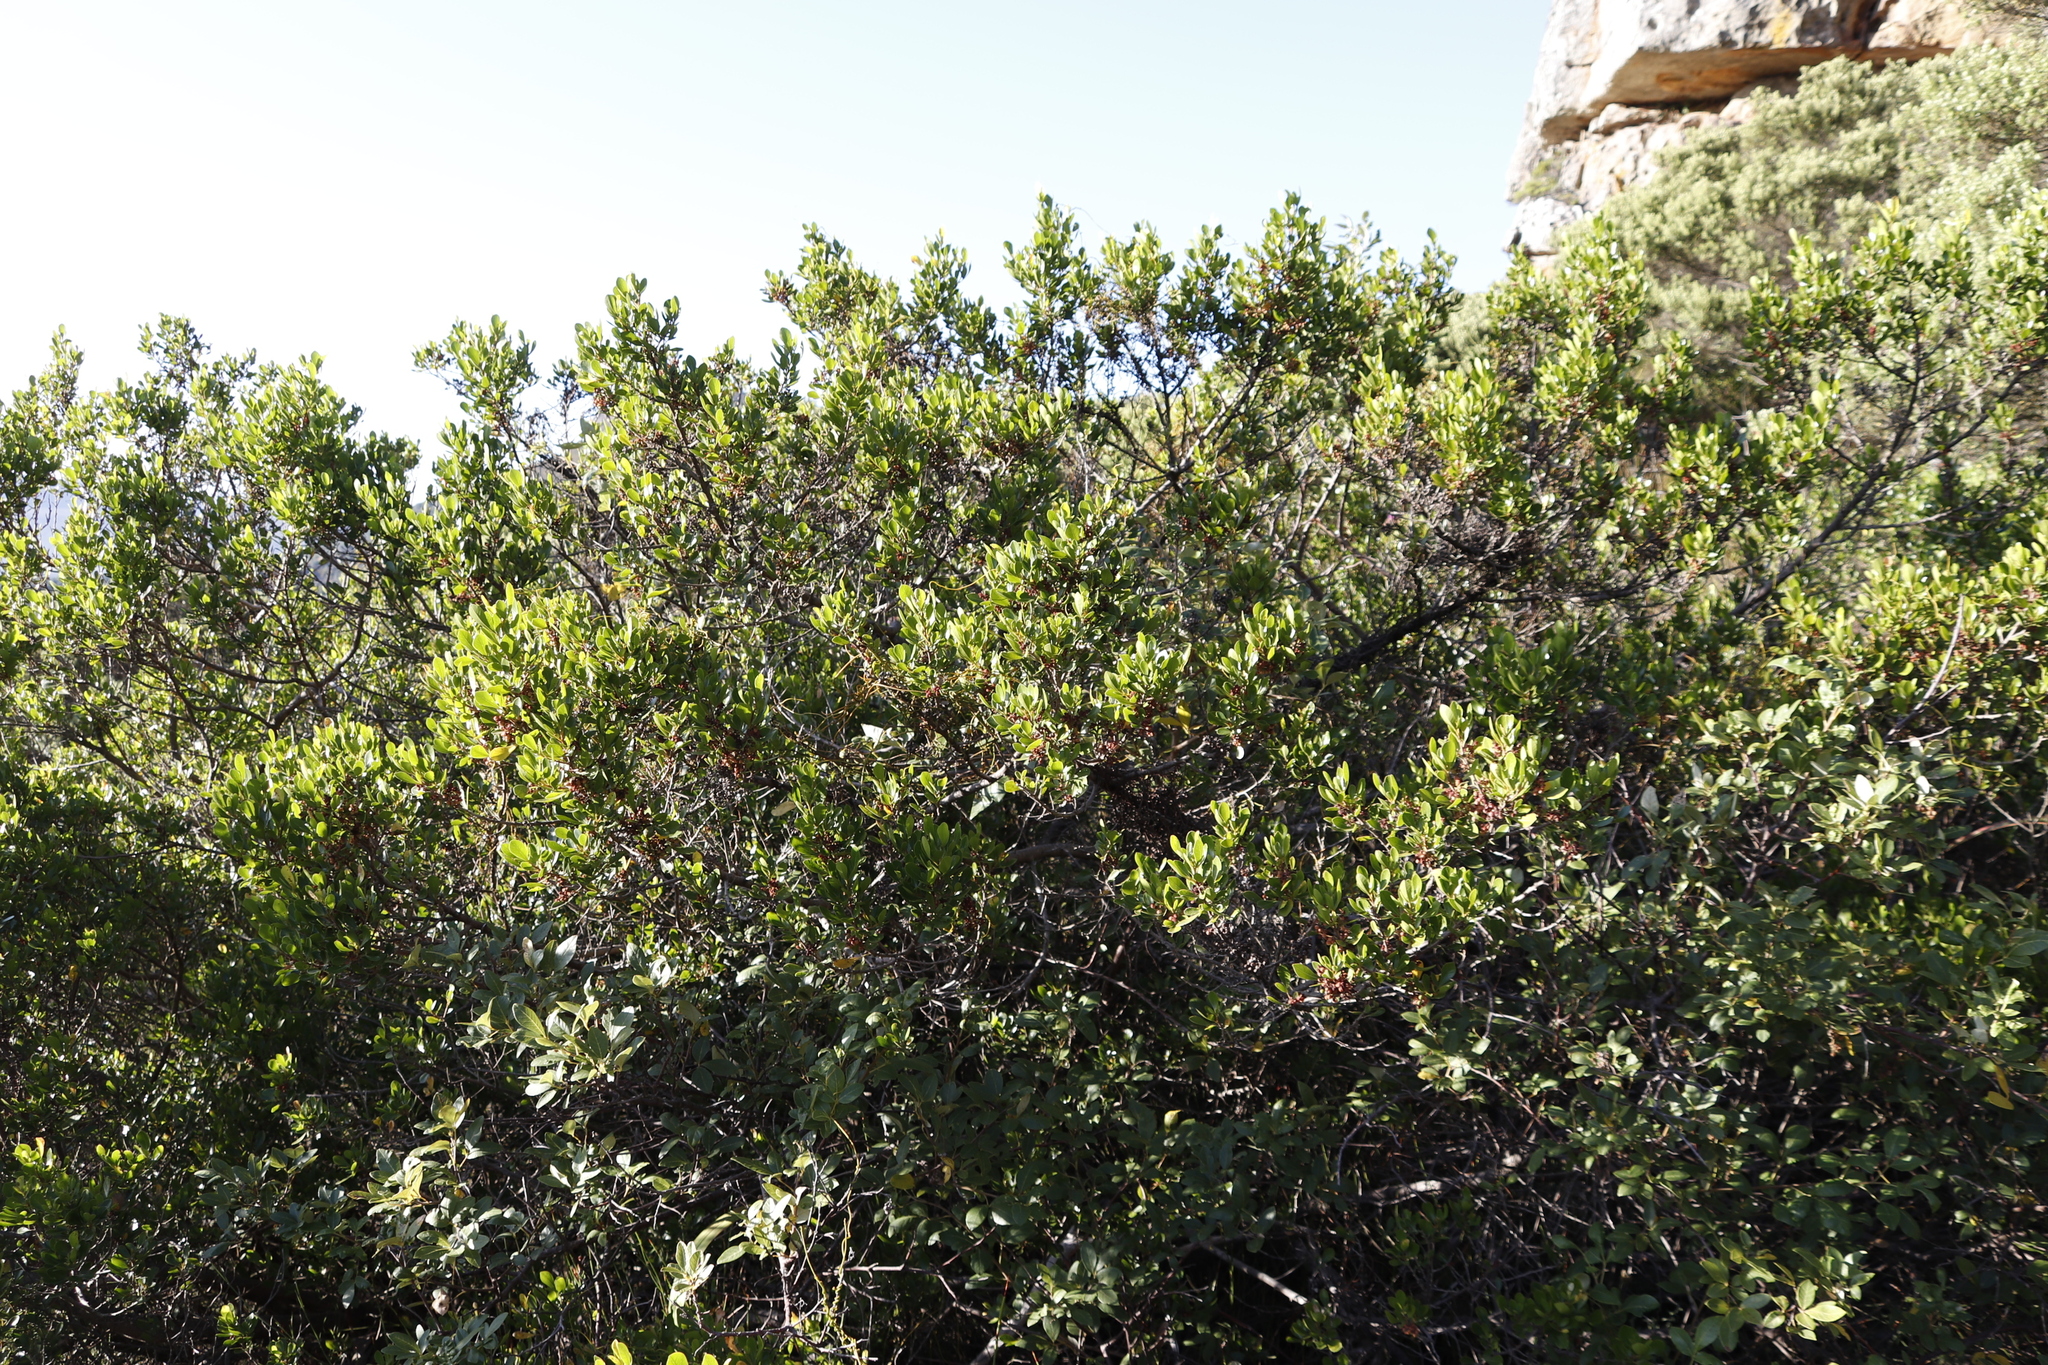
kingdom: Plantae
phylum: Tracheophyta
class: Magnoliopsida
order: Sapindales
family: Anacardiaceae
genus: Searsia
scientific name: Searsia lucida
